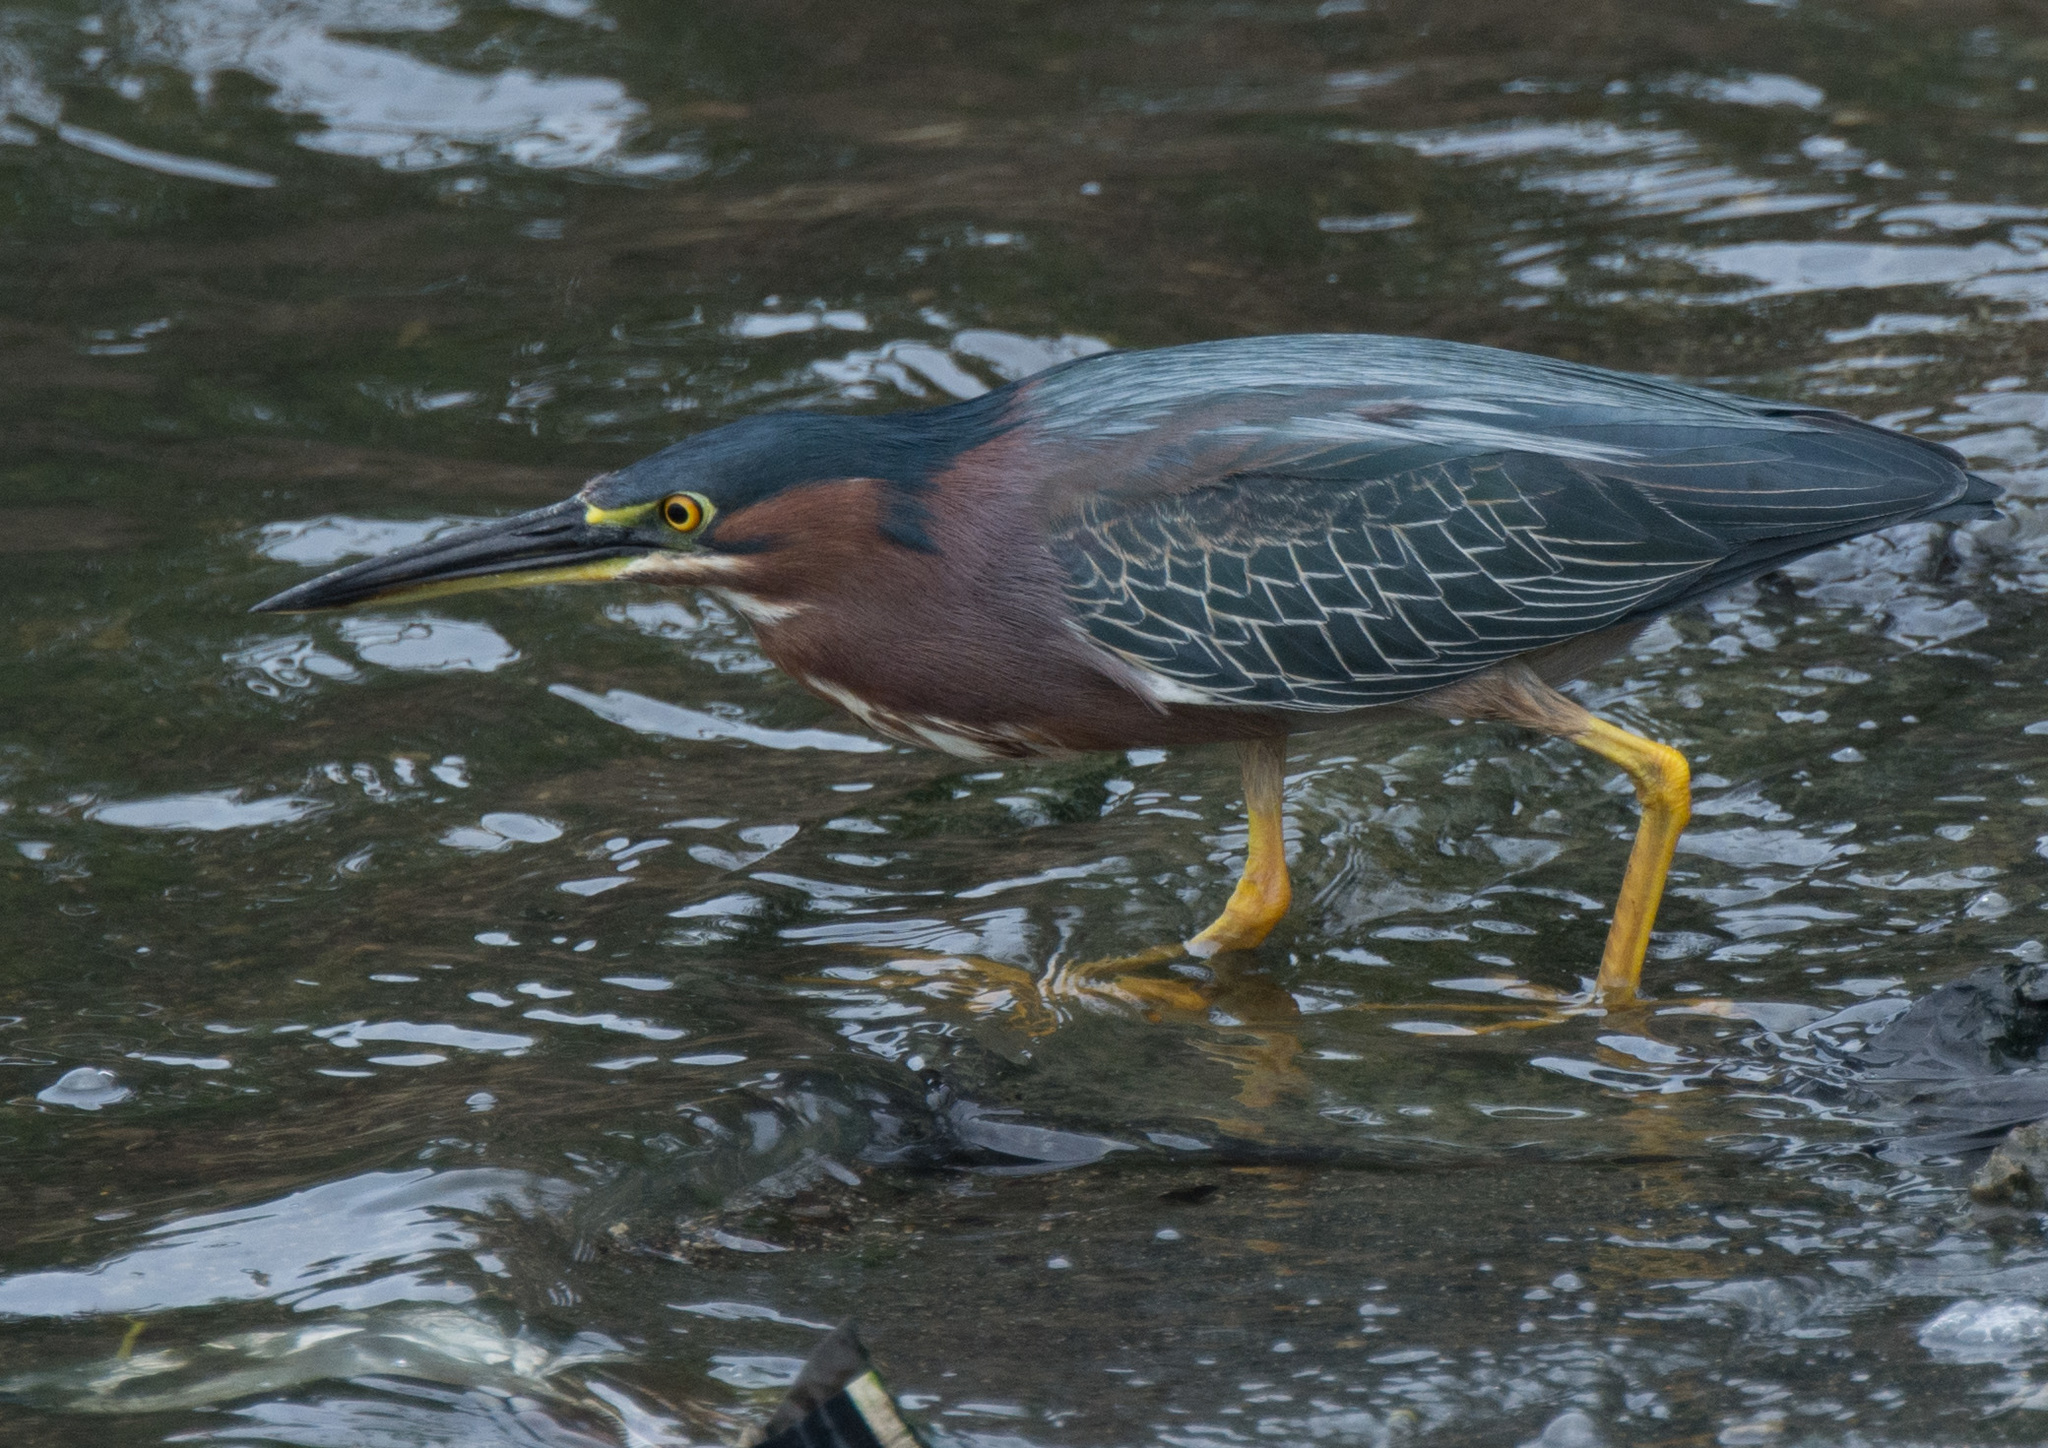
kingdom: Animalia
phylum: Chordata
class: Aves
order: Pelecaniformes
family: Ardeidae
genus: Butorides
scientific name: Butorides virescens
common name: Green heron
